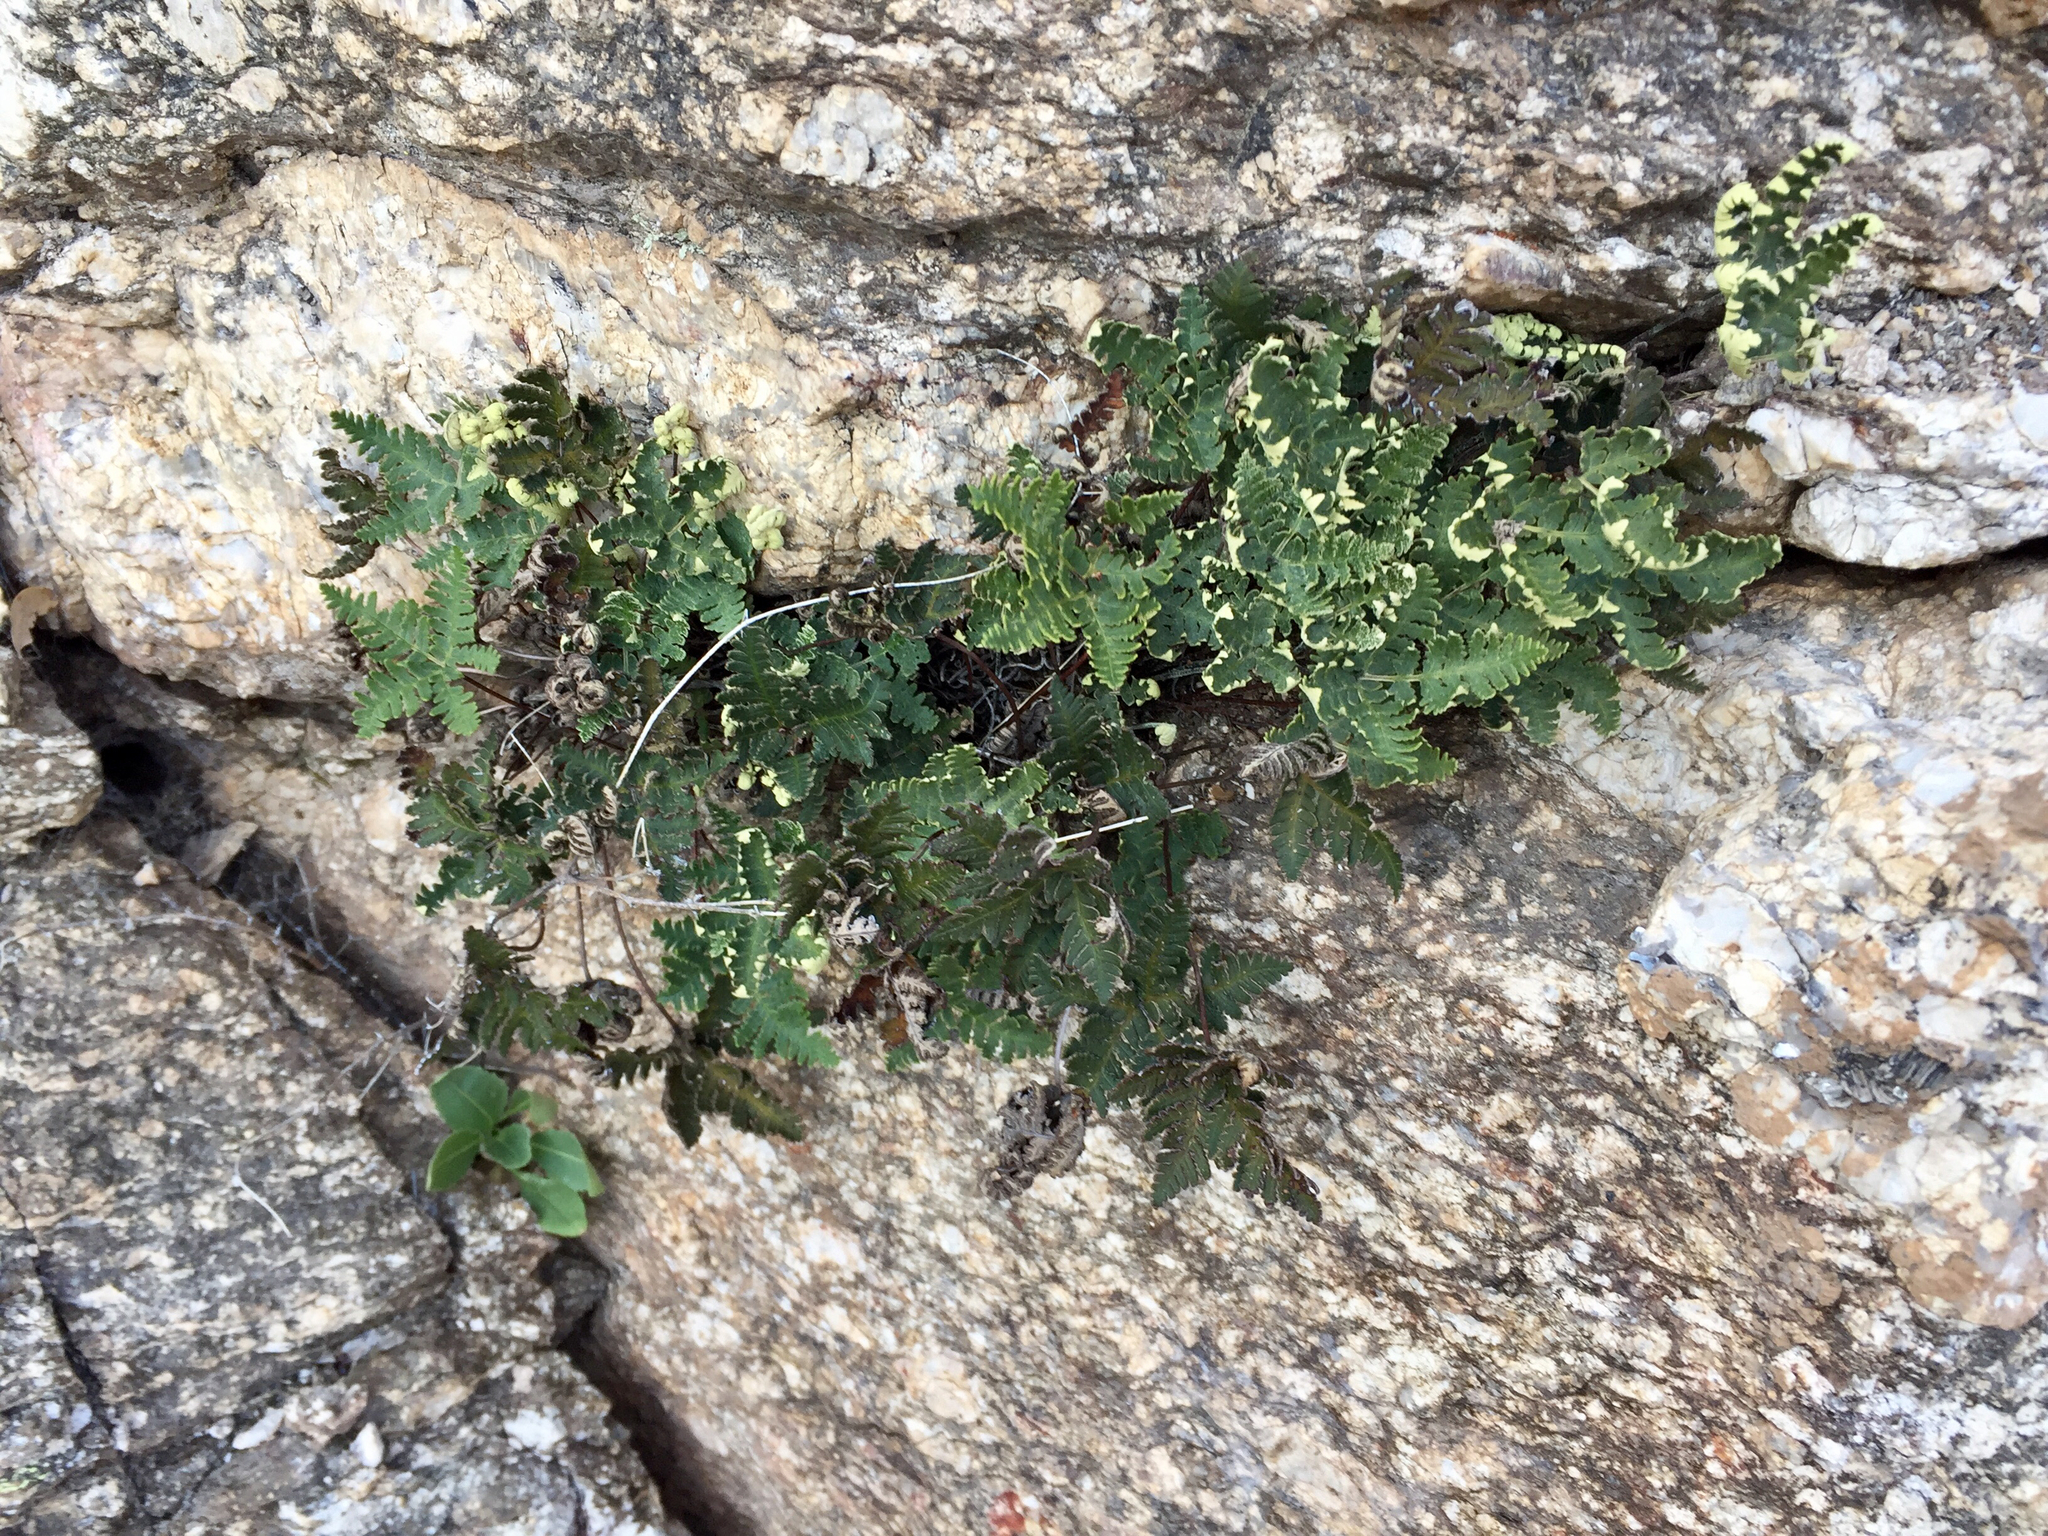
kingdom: Plantae
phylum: Tracheophyta
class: Polypodiopsida
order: Polypodiales
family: Pteridaceae
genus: Notholaena
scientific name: Notholaena standleyi
